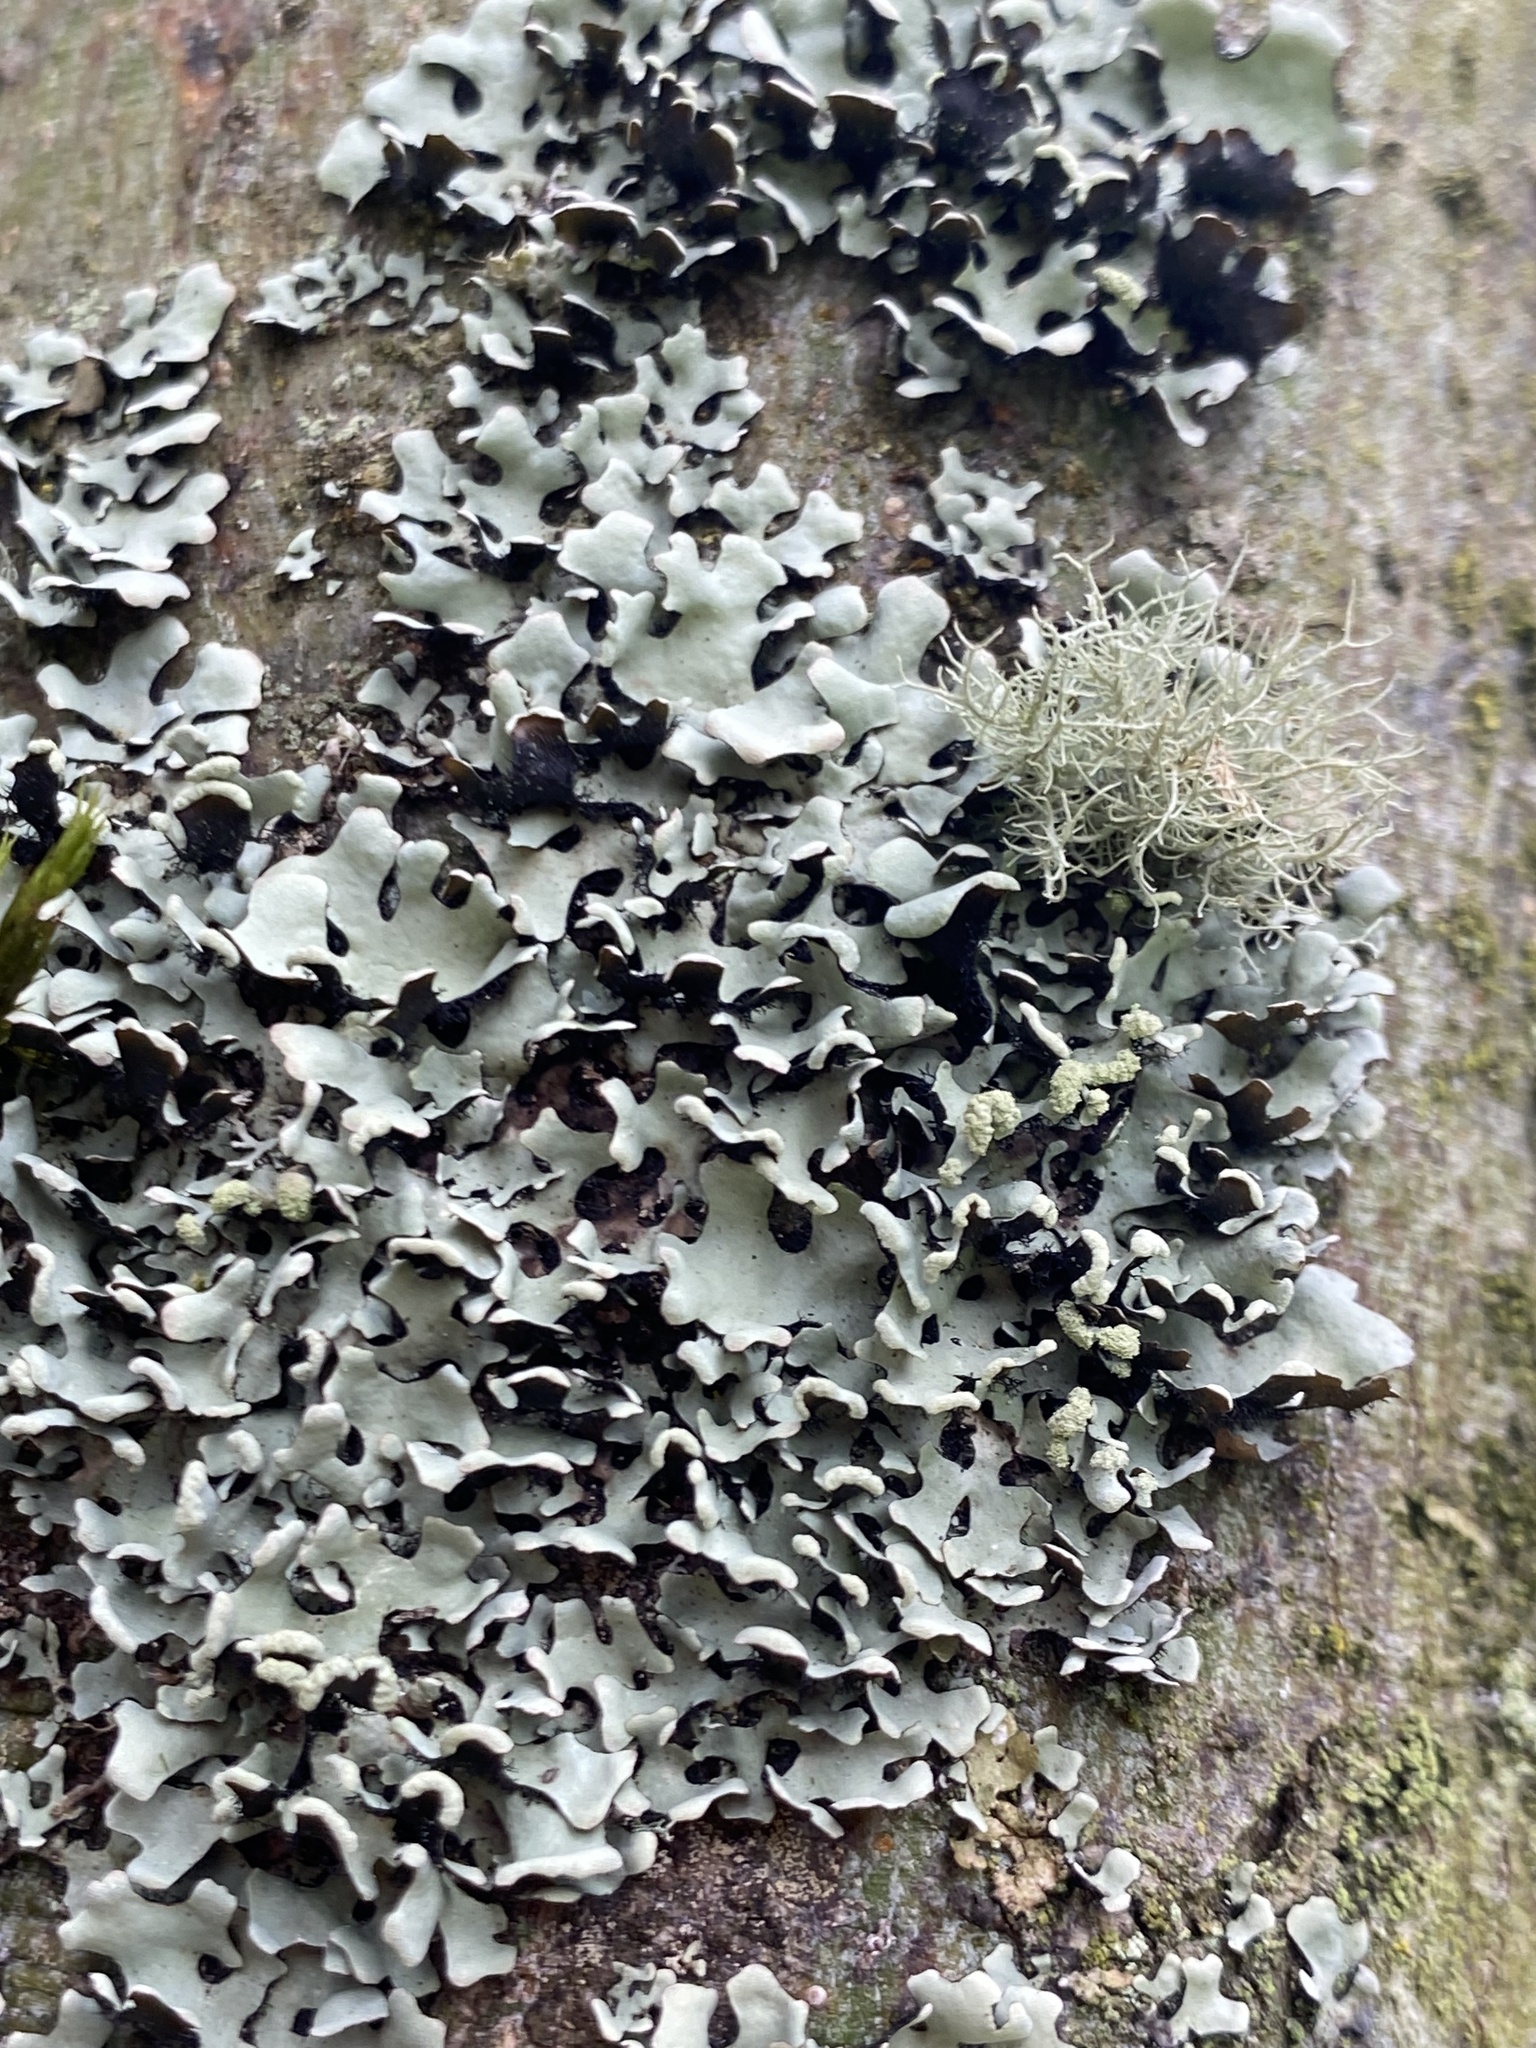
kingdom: Fungi
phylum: Ascomycota
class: Lecanoromycetes
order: Lecanorales
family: Parmeliaceae
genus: Hypotrachyna
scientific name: Hypotrachyna sinuosa
